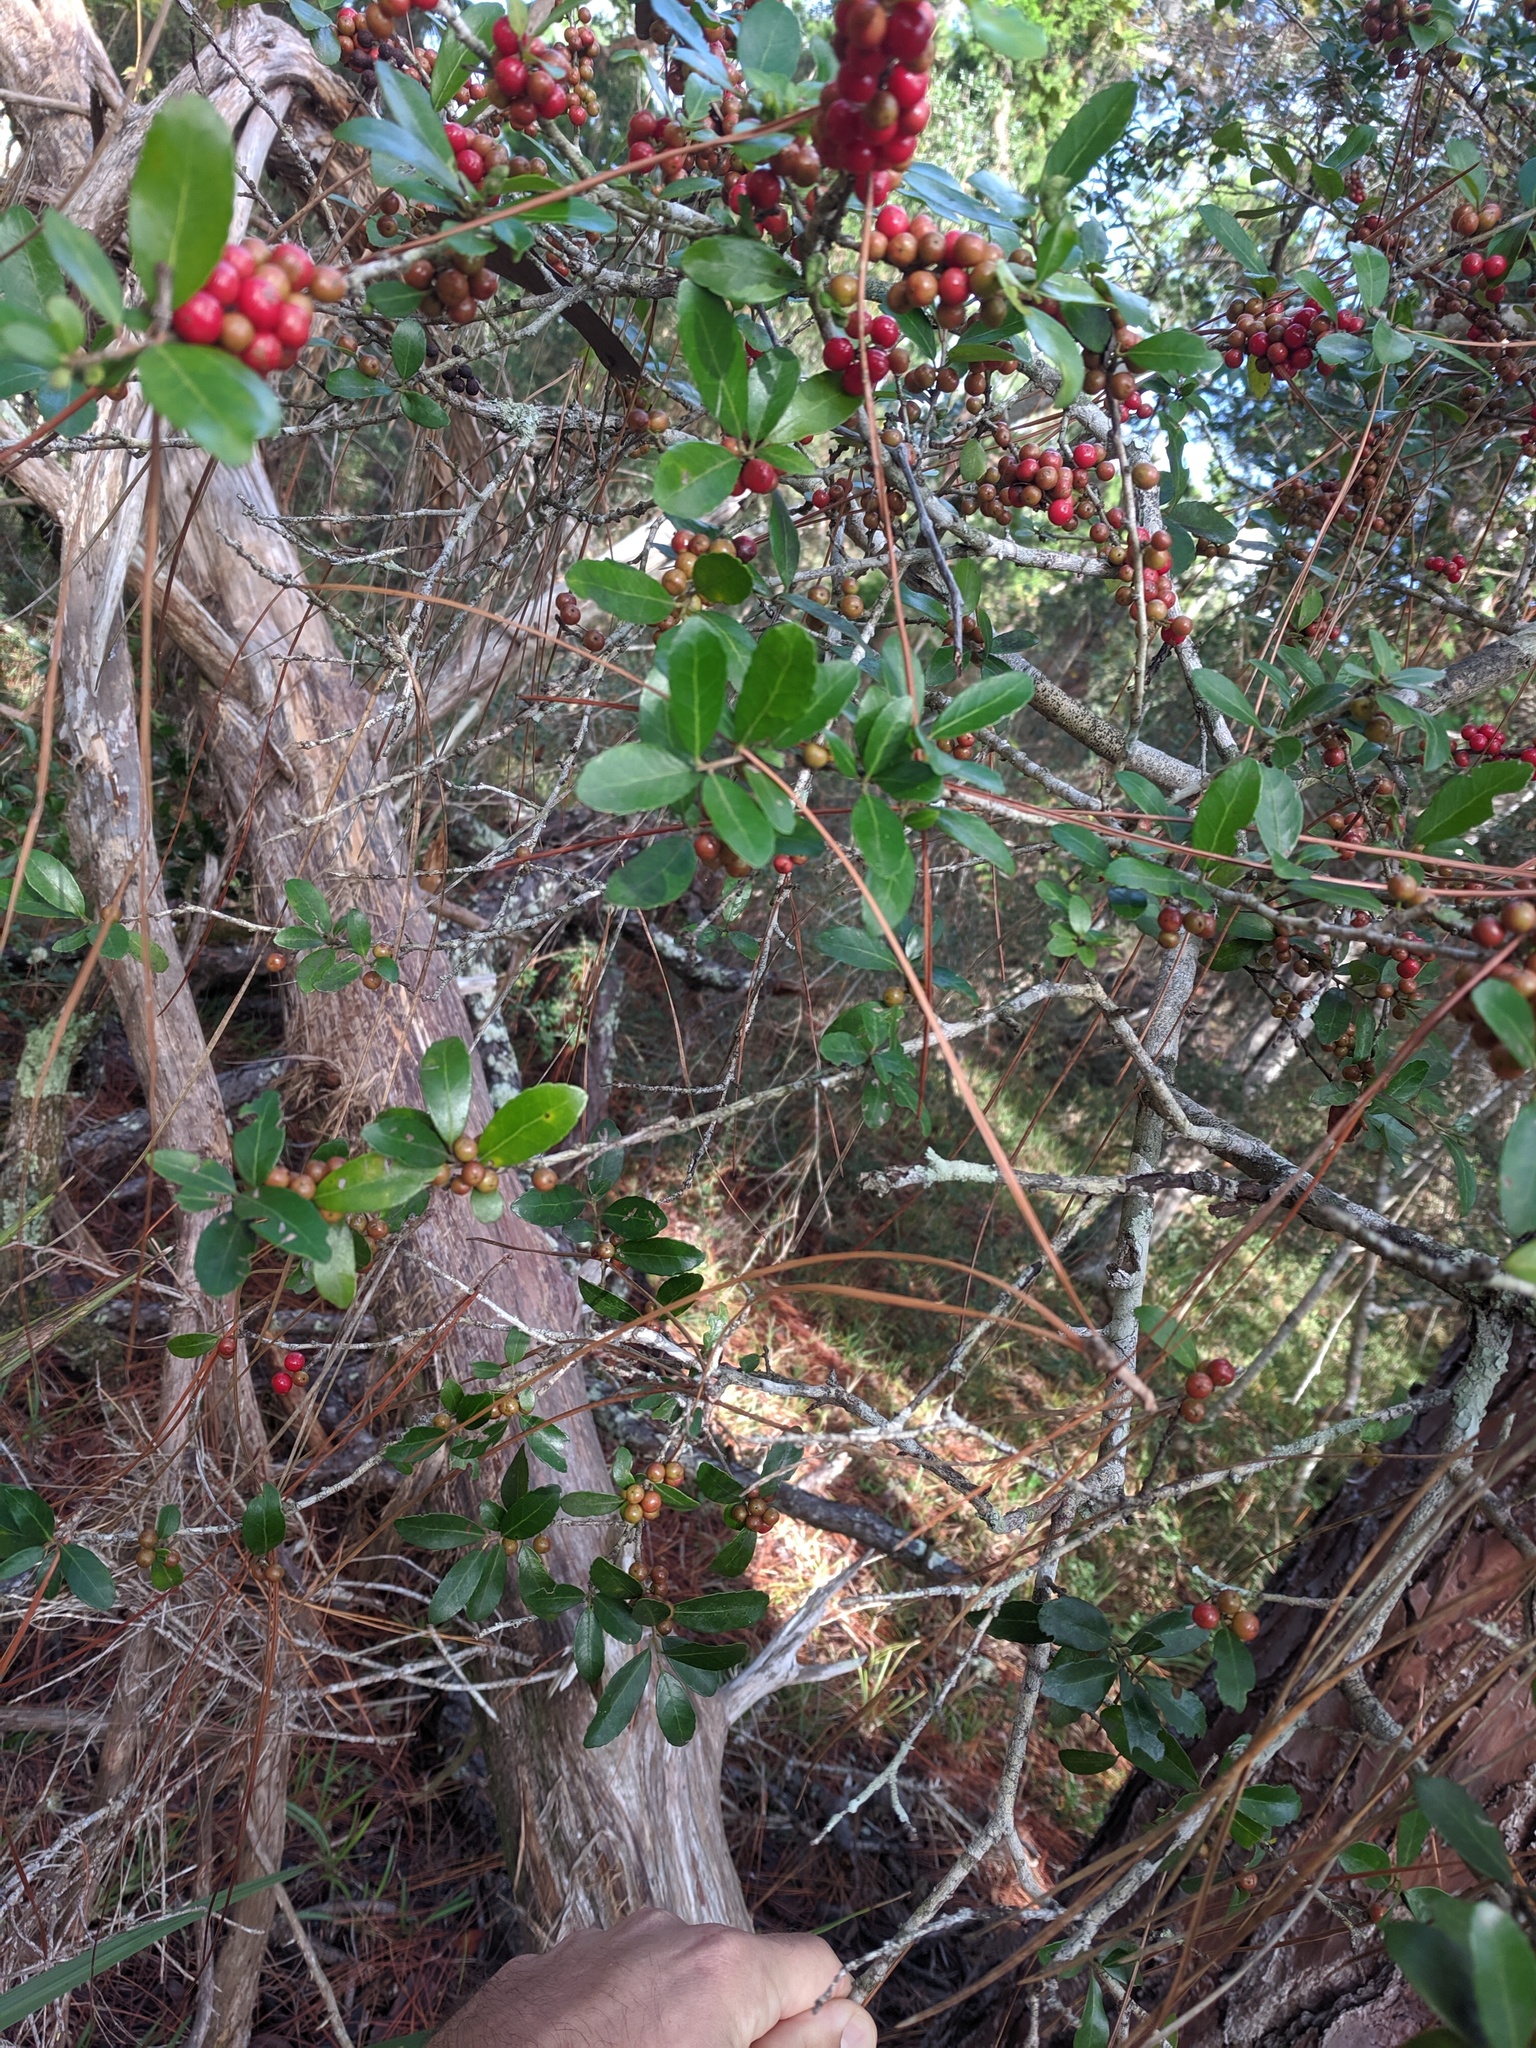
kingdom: Plantae
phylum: Tracheophyta
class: Magnoliopsida
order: Aquifoliales
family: Aquifoliaceae
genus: Ilex
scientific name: Ilex vomitoria
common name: Yaupon holly
